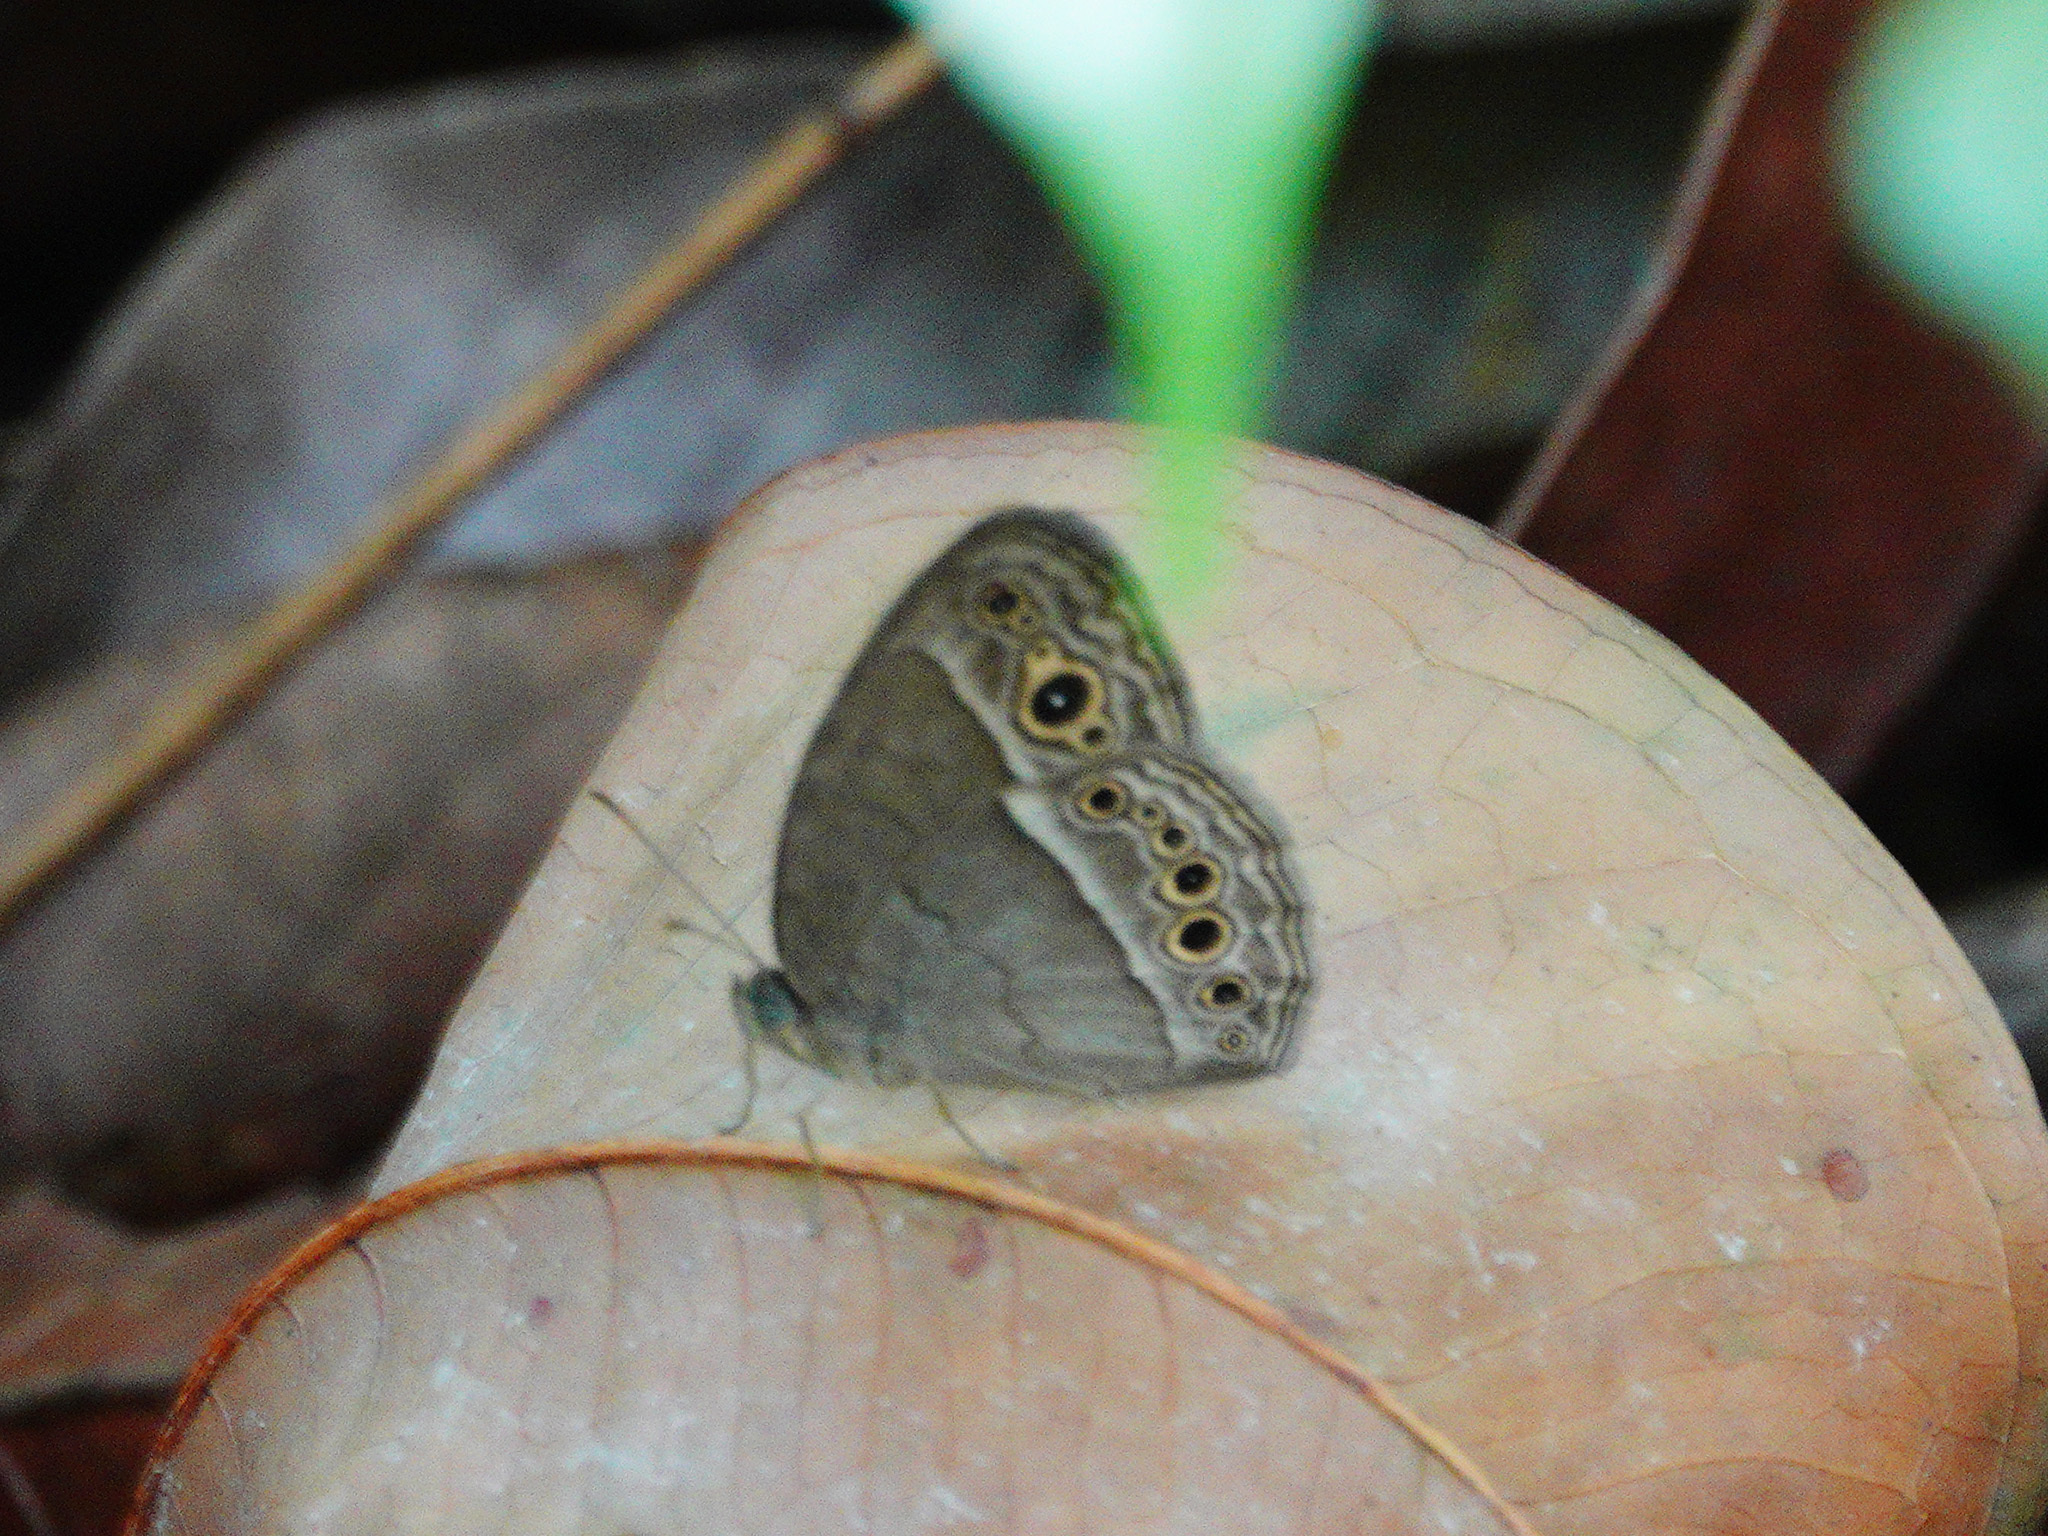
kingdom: Animalia
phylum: Arthropoda
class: Insecta
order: Lepidoptera
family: Nymphalidae
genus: Mycalesis
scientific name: Mycalesis perseoides
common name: Burmese bushbrown
